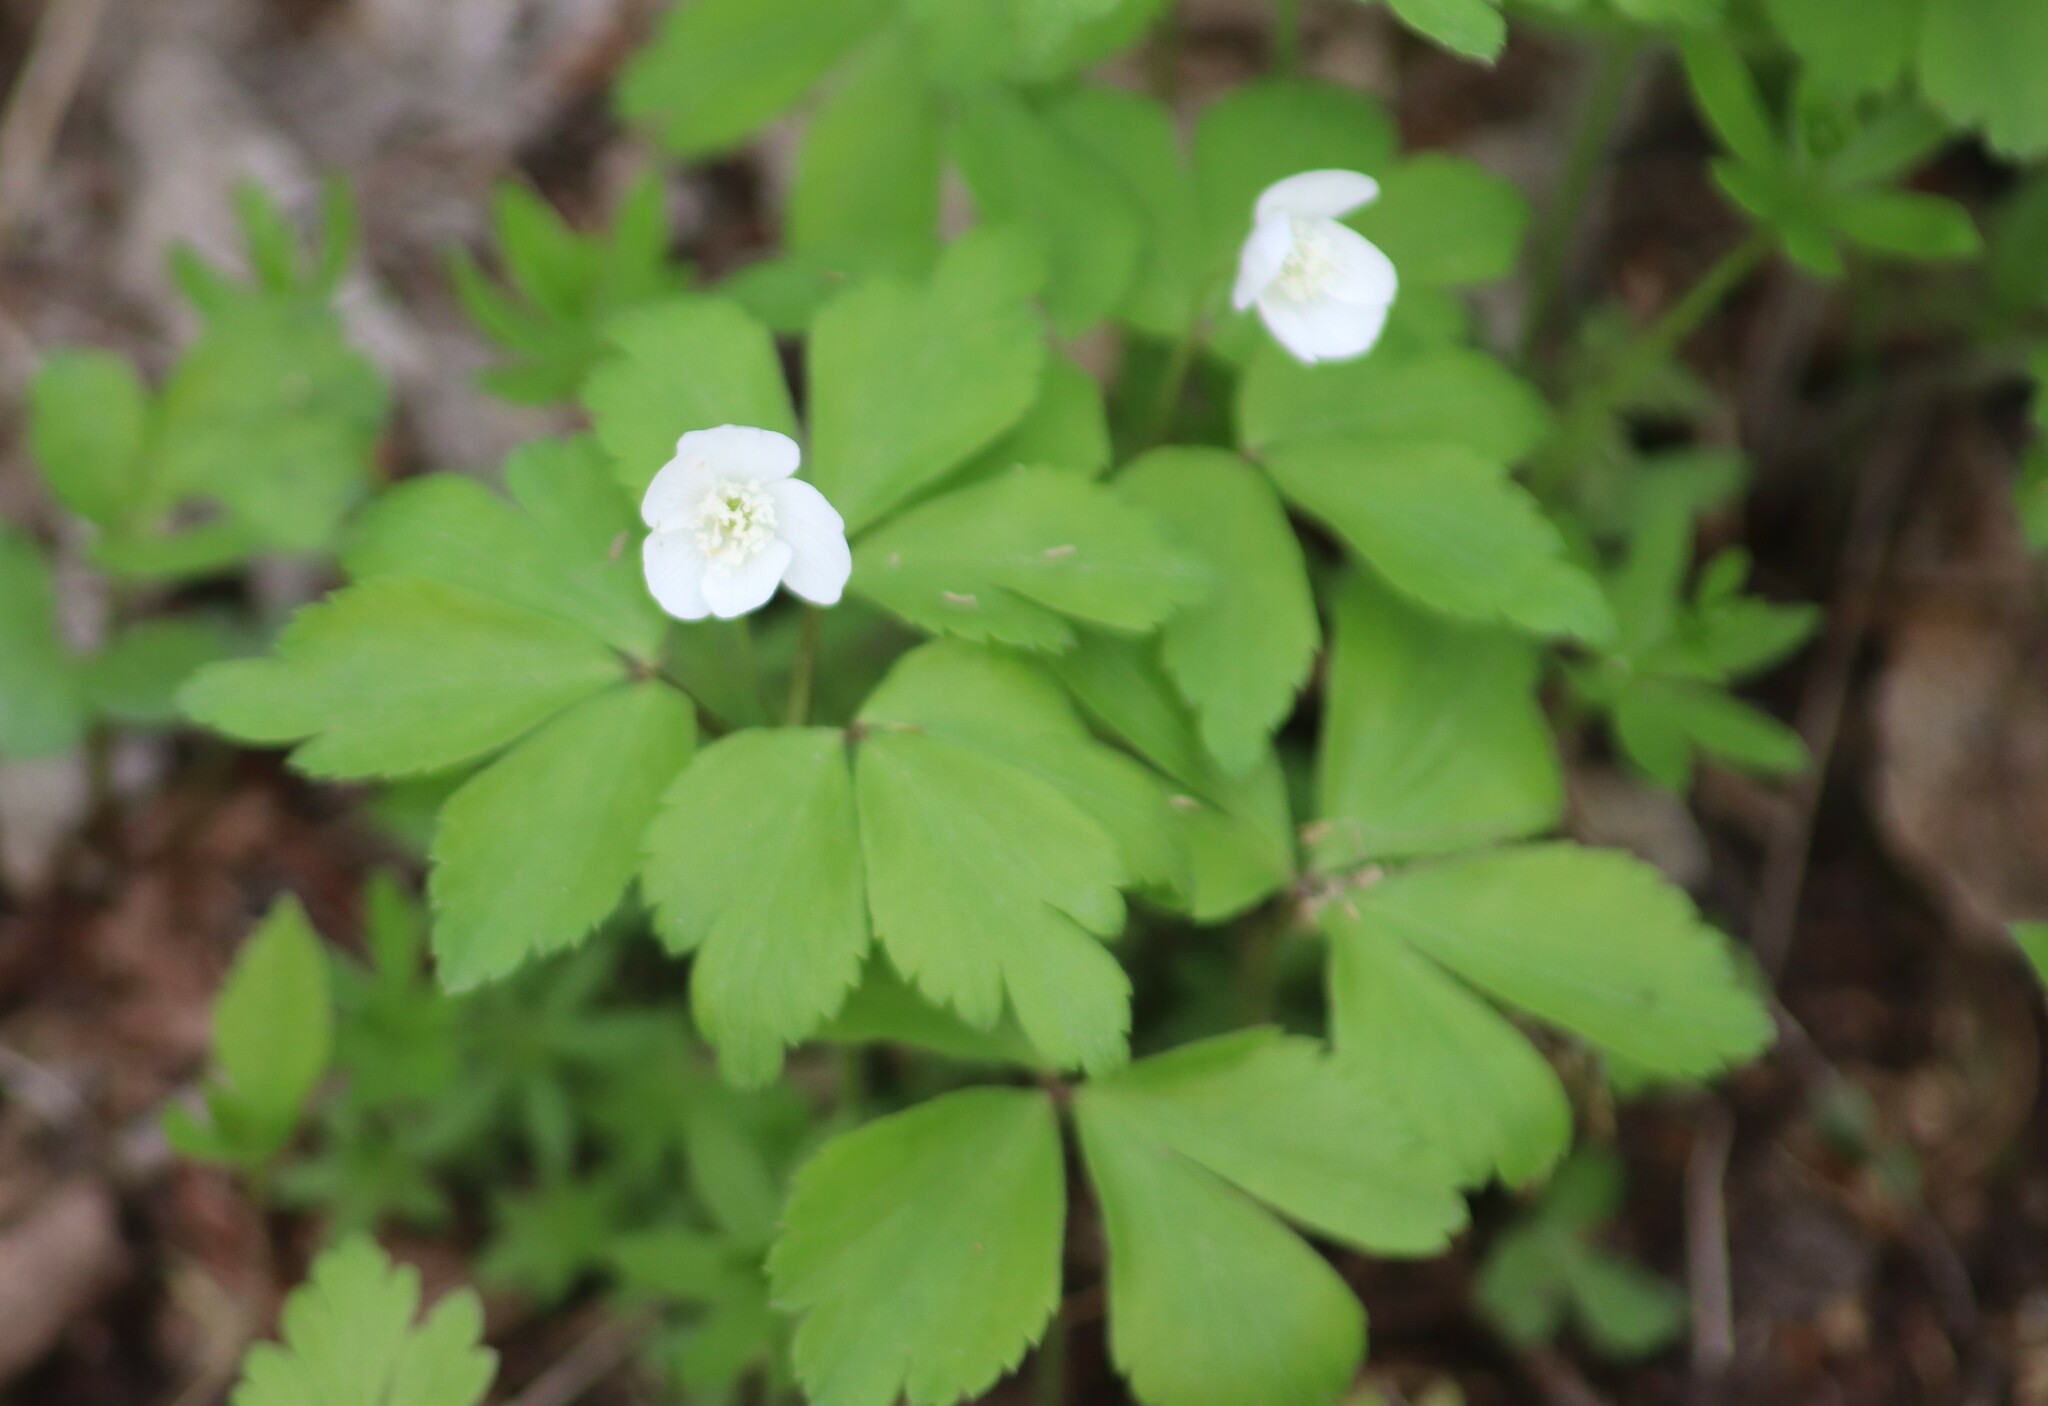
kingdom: Plantae
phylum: Tracheophyta
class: Magnoliopsida
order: Ranunculales
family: Ranunculaceae
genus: Anemone
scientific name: Anemone quinquefolia
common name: Wood anemone
